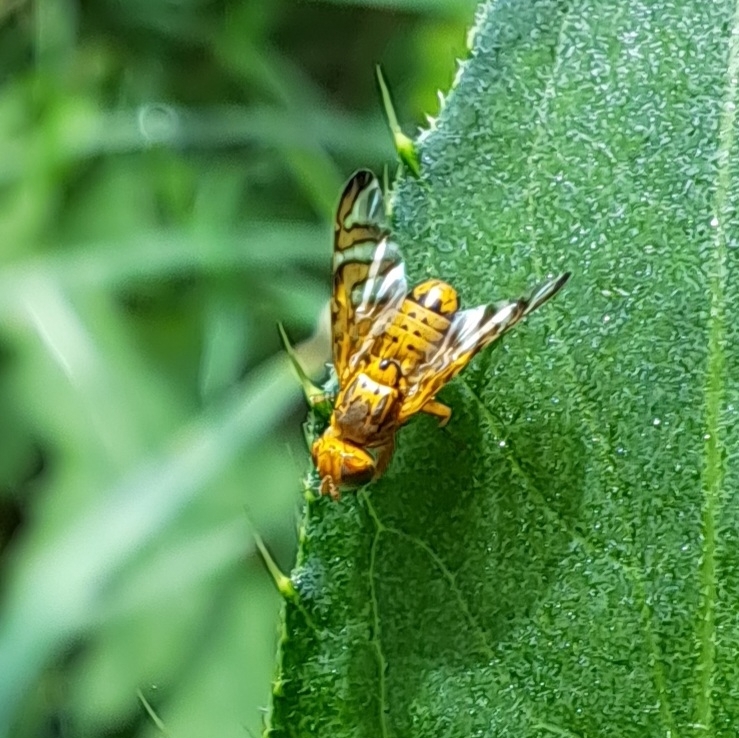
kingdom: Animalia
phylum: Arthropoda
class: Insecta
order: Diptera
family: Tephritidae
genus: Chaetostomella
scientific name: Chaetostomella cylindrica
